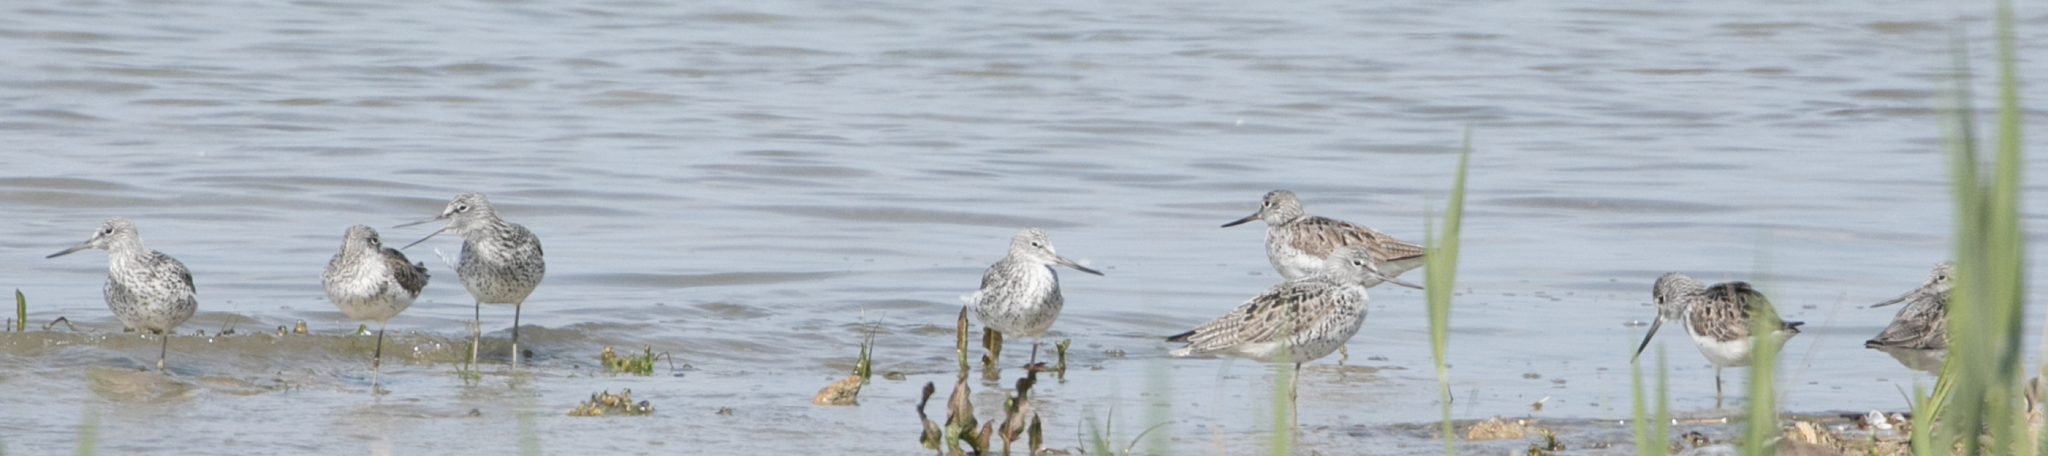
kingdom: Animalia
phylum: Chordata
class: Aves
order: Charadriiformes
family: Scolopacidae
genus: Tringa
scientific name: Tringa nebularia
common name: Common greenshank
